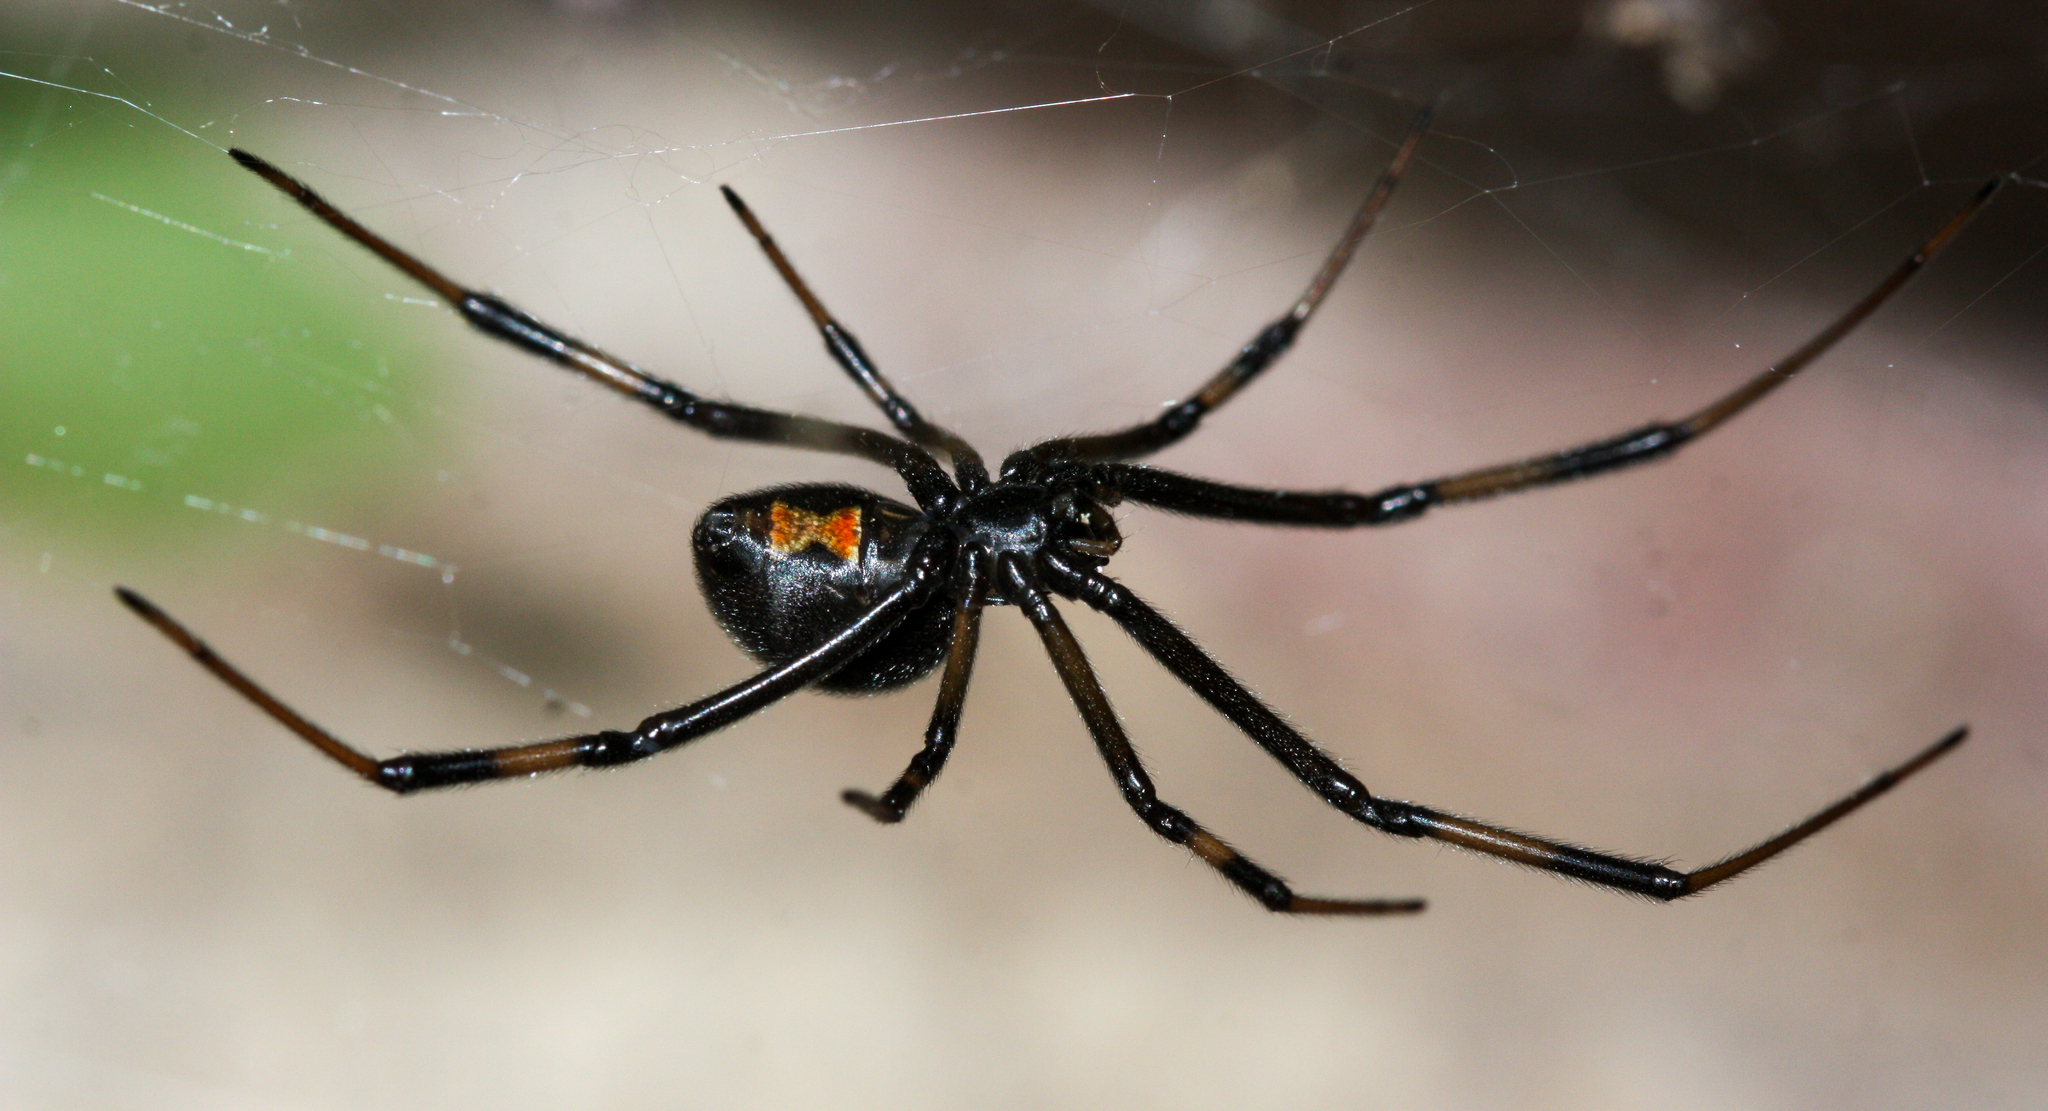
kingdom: Animalia
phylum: Arthropoda
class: Arachnida
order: Araneae
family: Theridiidae
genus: Latrodectus
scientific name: Latrodectus hesperus
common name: Western black widow
